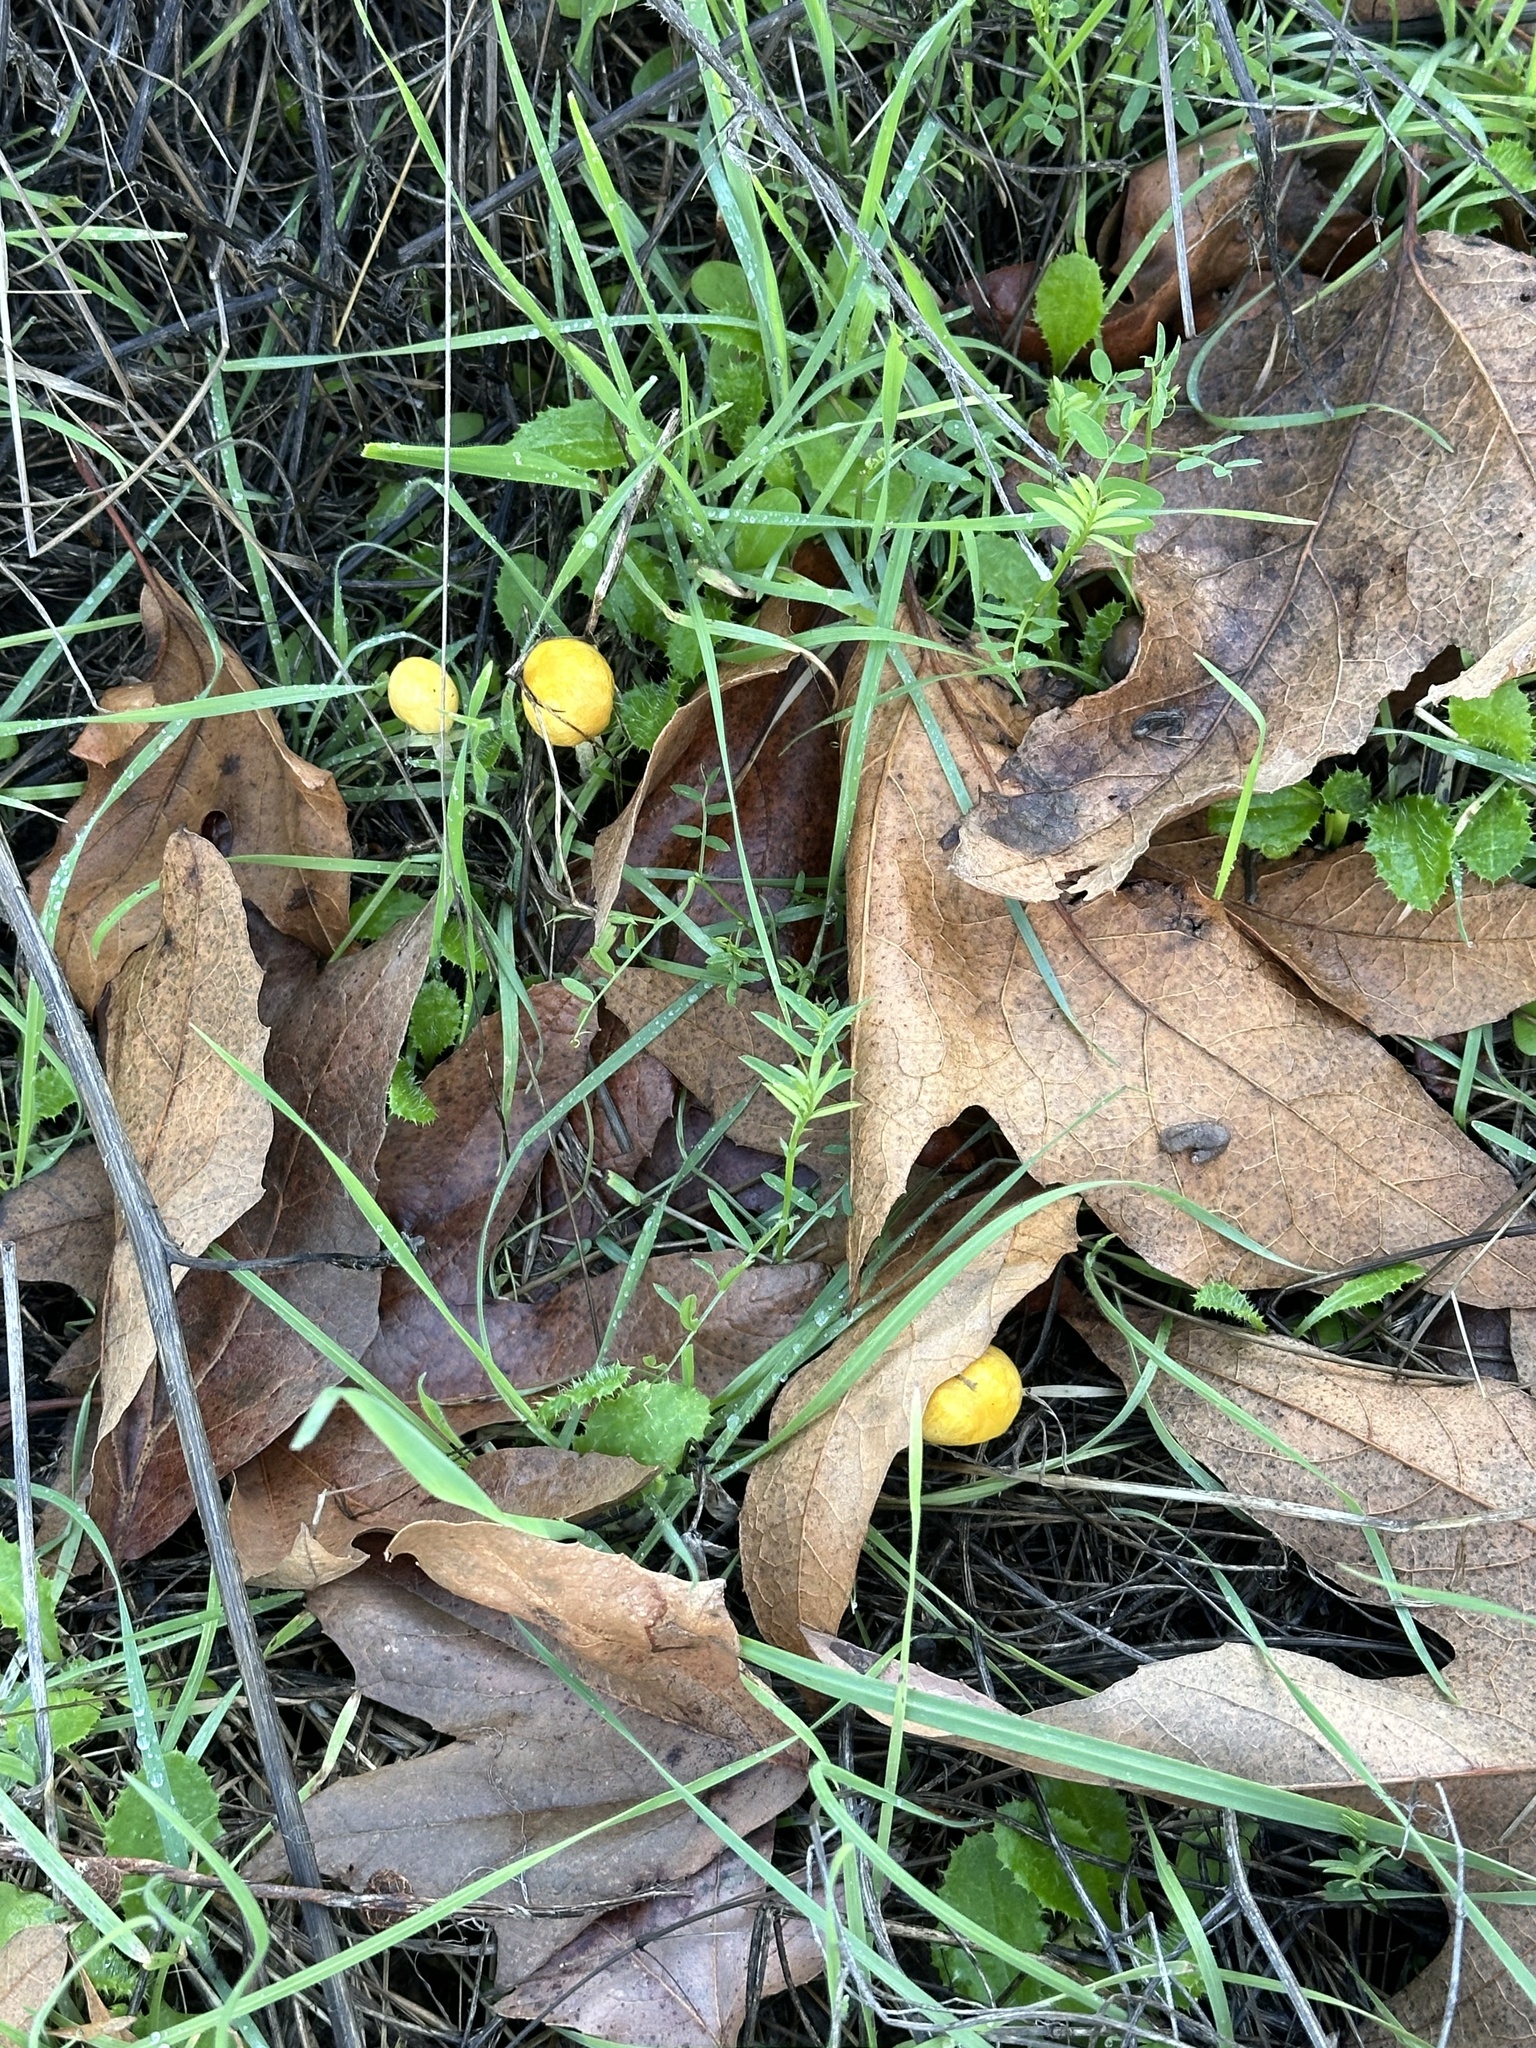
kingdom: Fungi
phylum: Basidiomycota
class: Agaricomycetes
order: Agaricales
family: Bolbitiaceae
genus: Bolbitius
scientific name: Bolbitius titubans
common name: Yellow fieldcap
